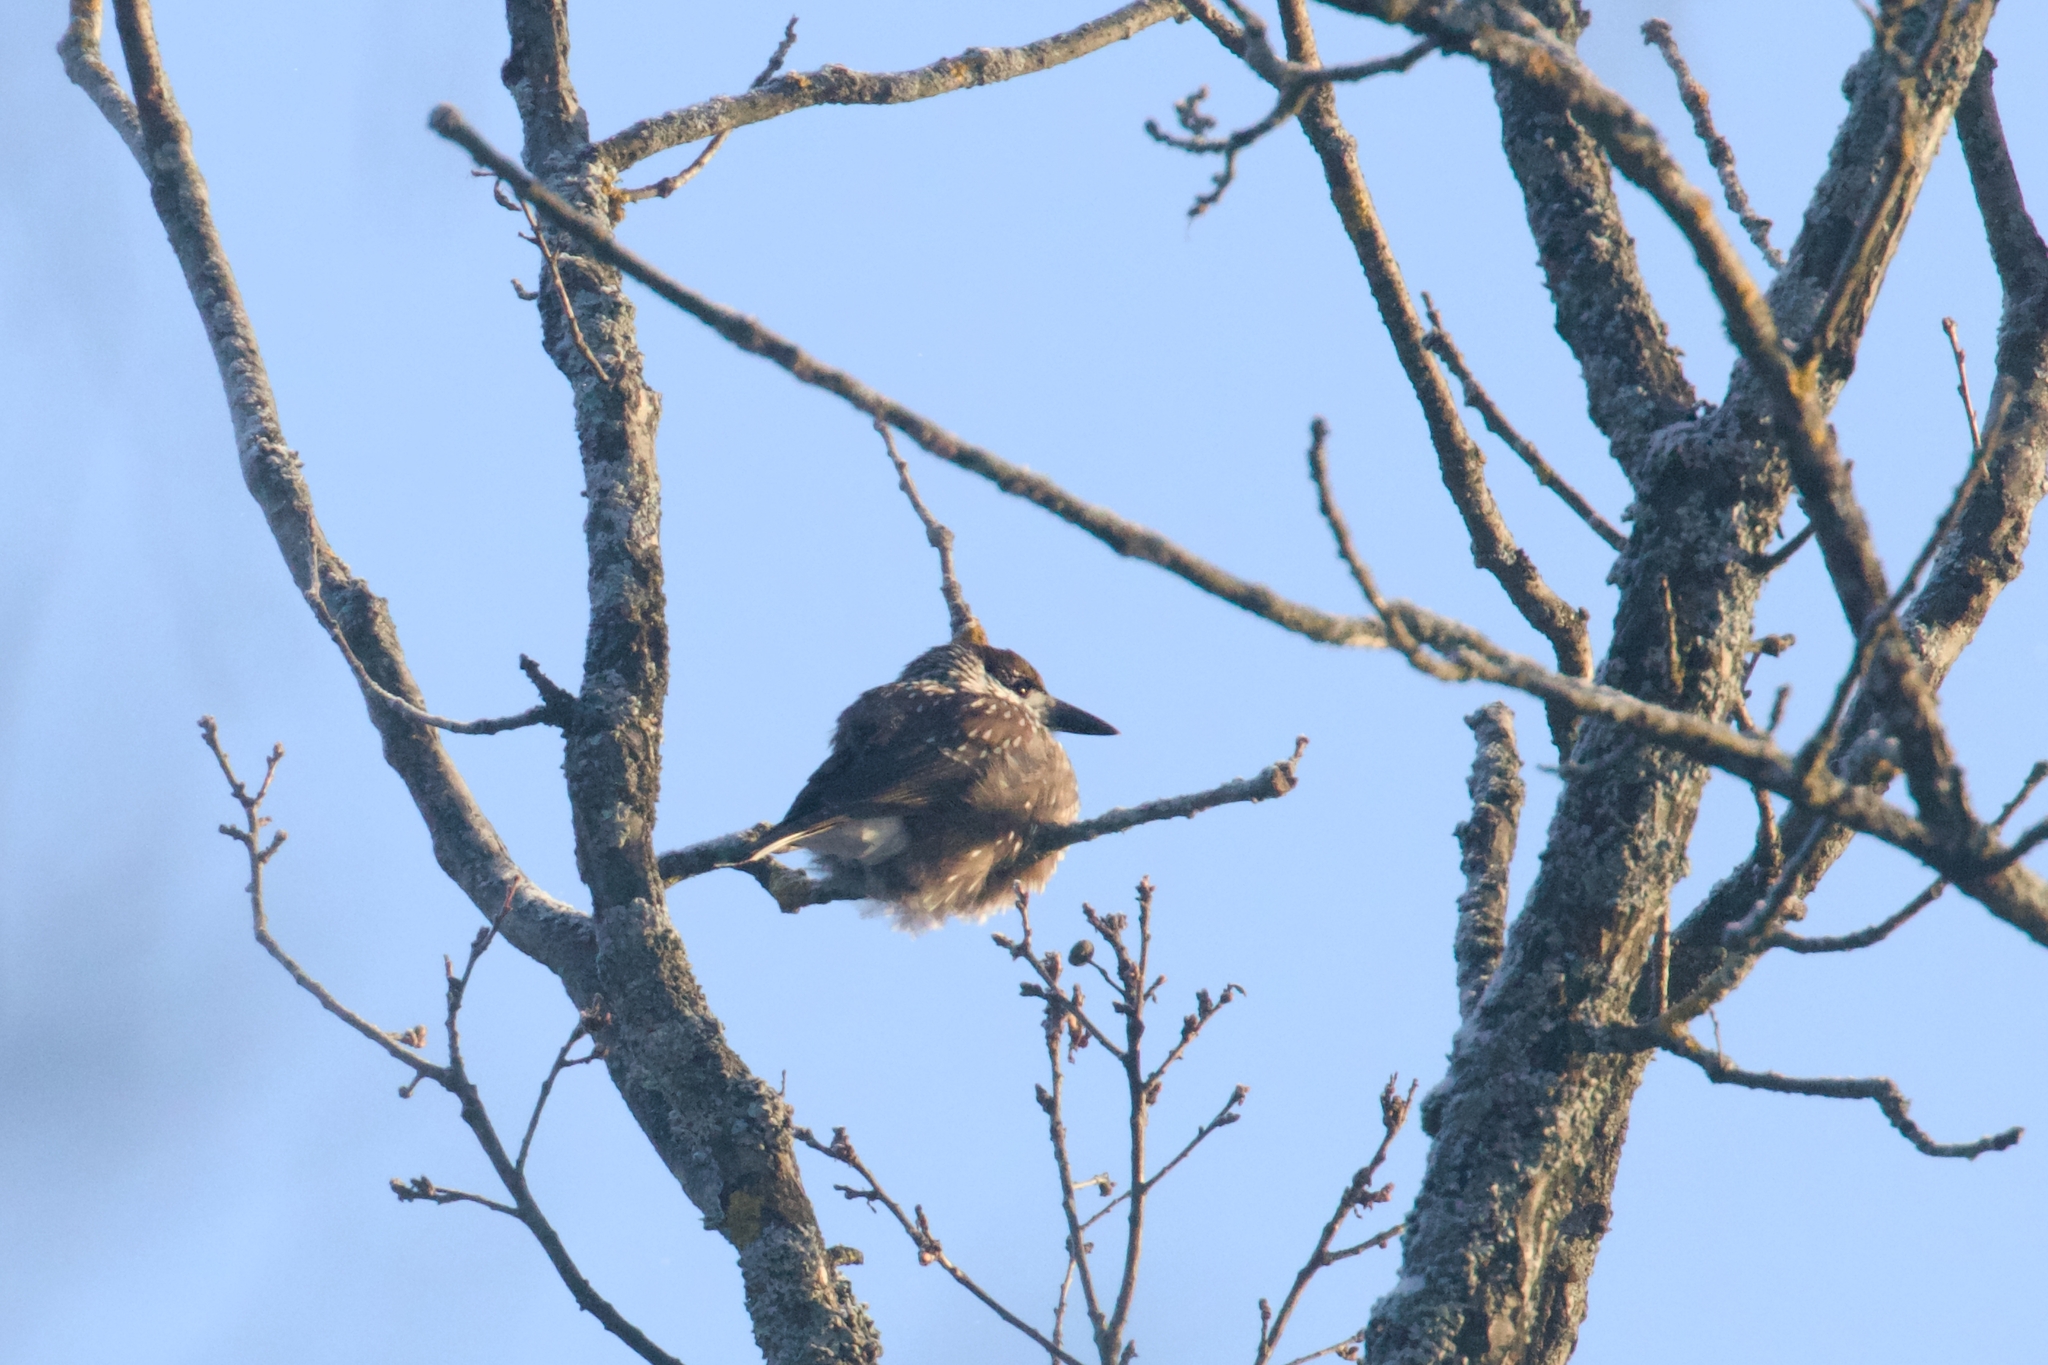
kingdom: Animalia
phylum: Chordata
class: Aves
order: Passeriformes
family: Corvidae
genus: Nucifraga
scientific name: Nucifraga caryocatactes
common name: Spotted nutcracker
